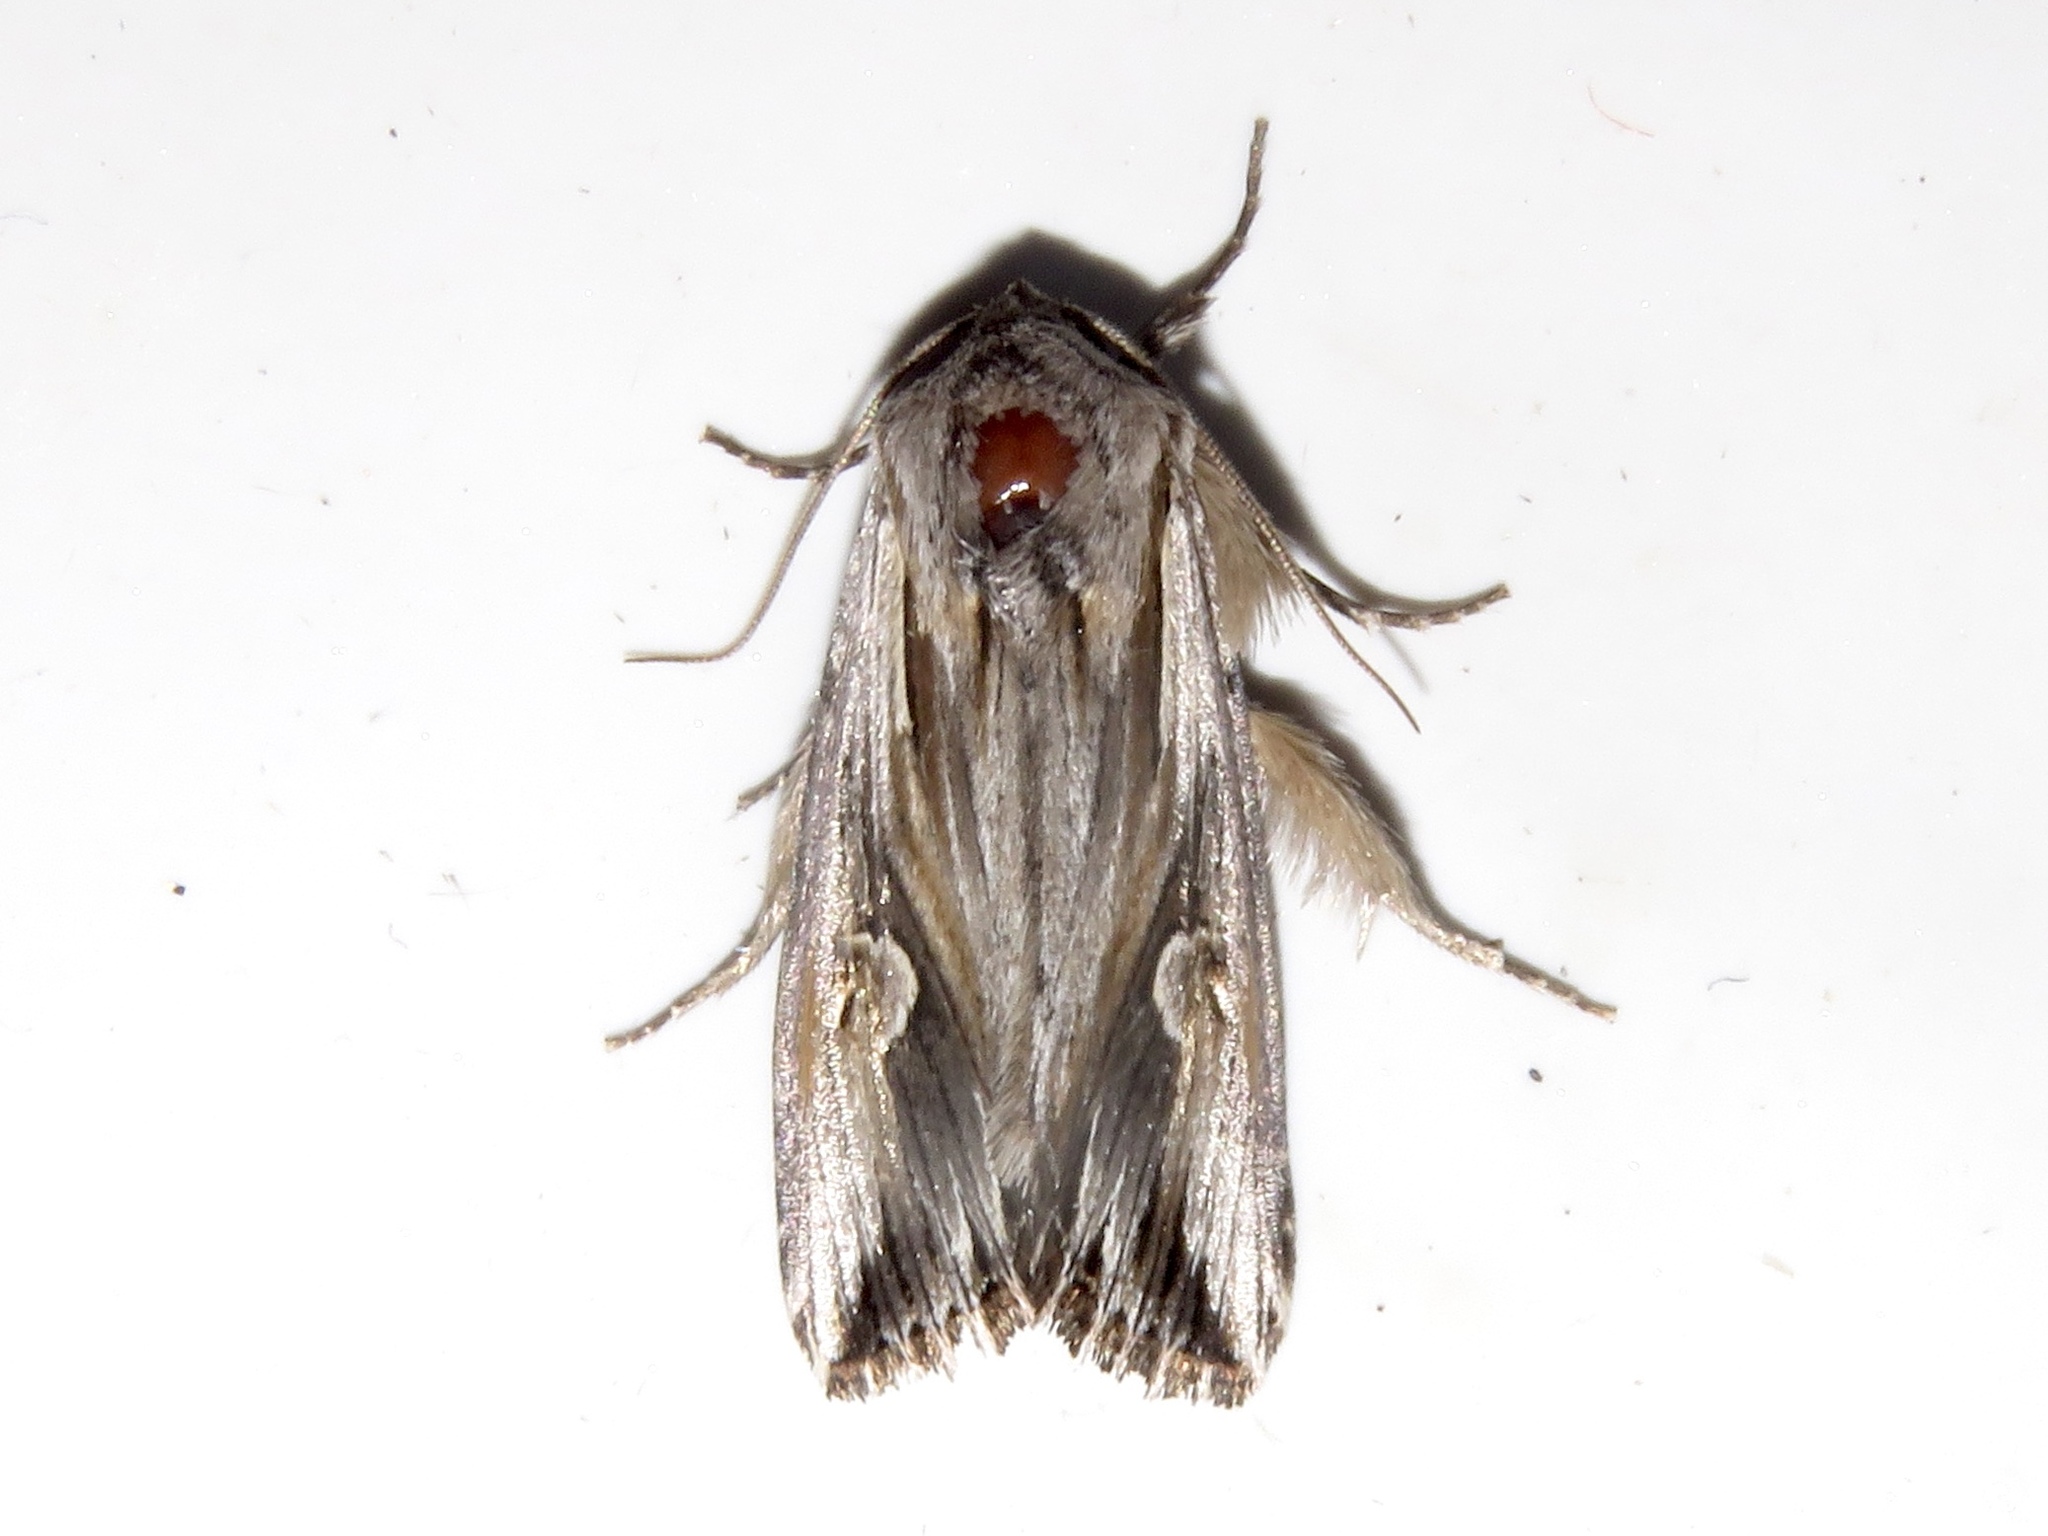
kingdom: Animalia
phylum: Arthropoda
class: Insecta
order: Lepidoptera
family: Noctuidae
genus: Nedra
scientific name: Nedra ramosula
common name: Gray half-spot
